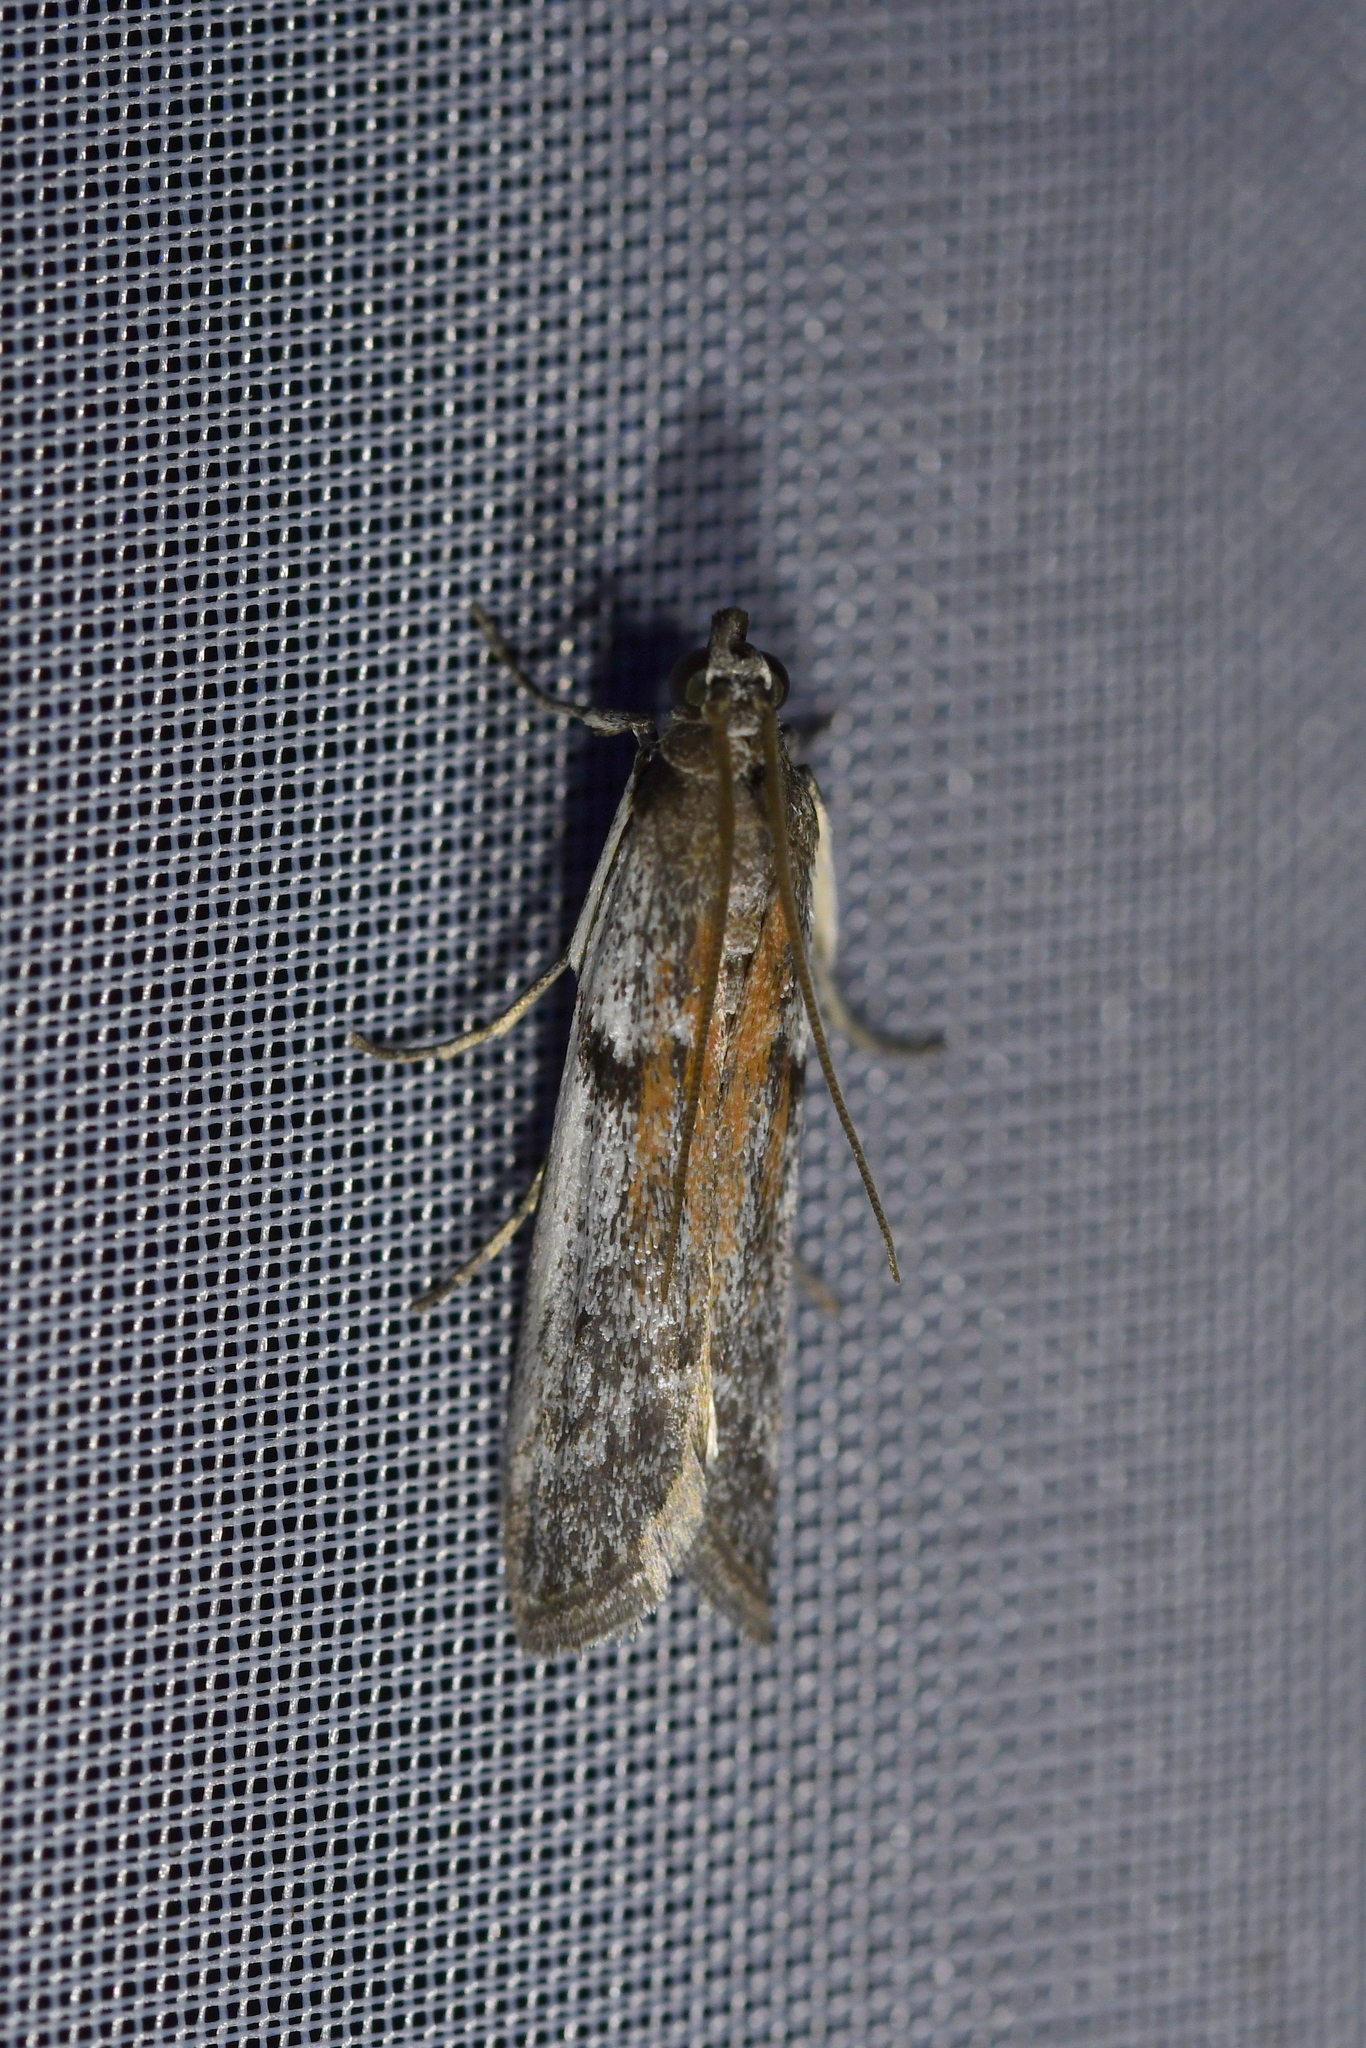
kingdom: Animalia
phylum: Arthropoda
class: Insecta
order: Lepidoptera
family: Pyralidae
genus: Patagoniodes
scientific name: Patagoniodes farinaria
